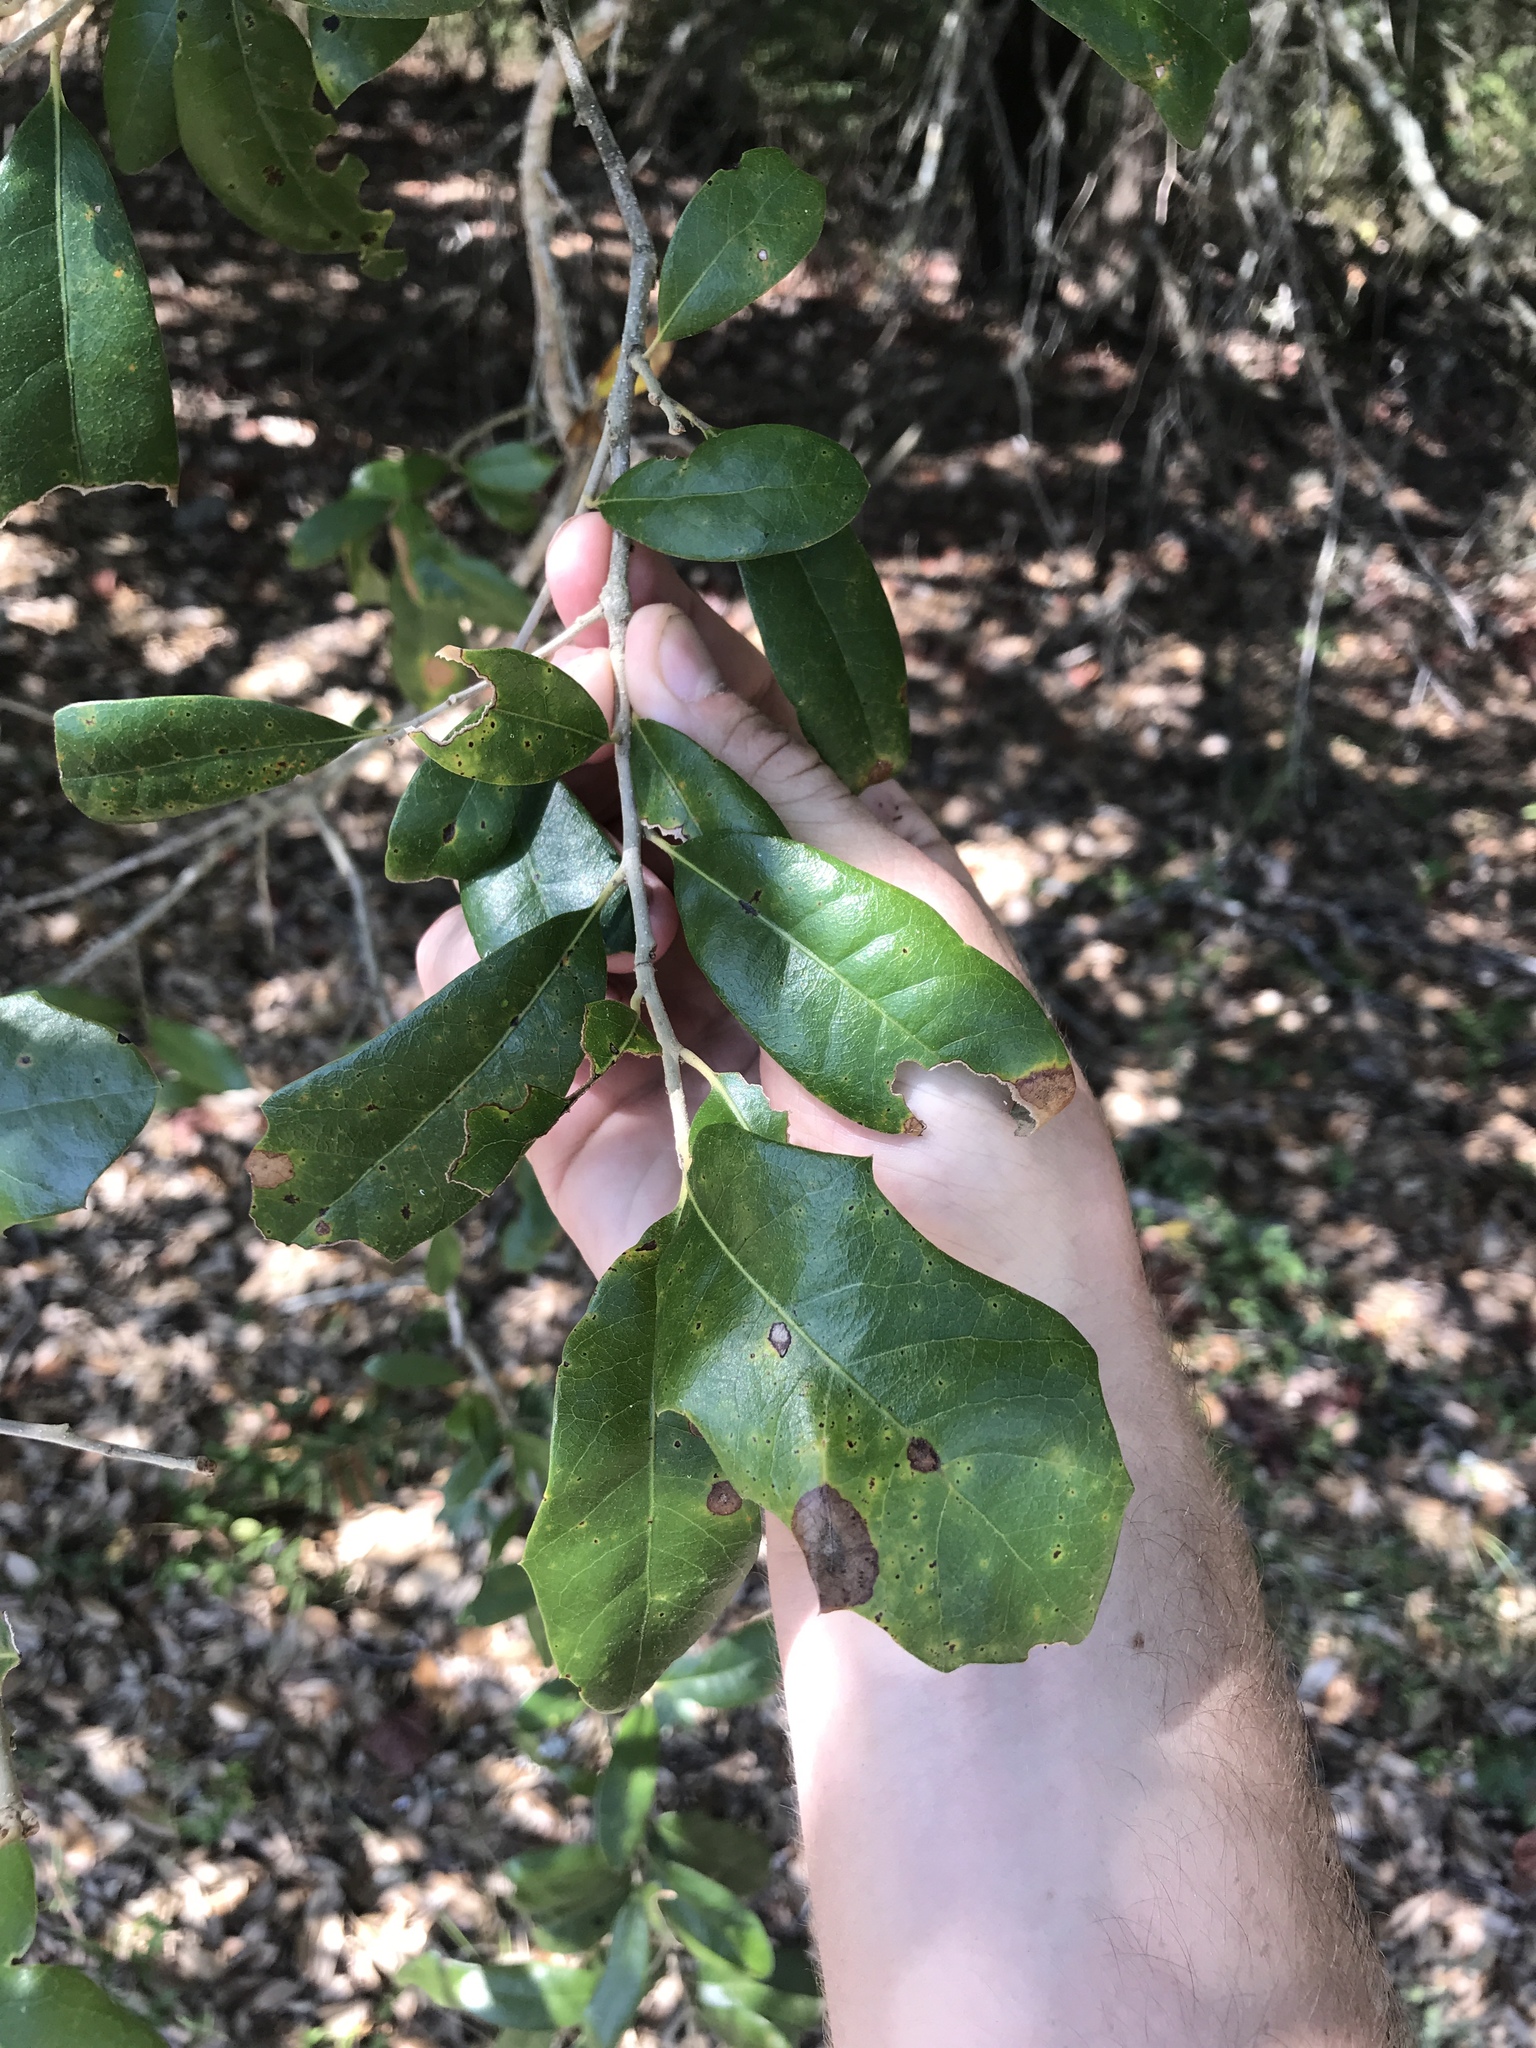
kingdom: Plantae
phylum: Tracheophyta
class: Magnoliopsida
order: Fagales
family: Fagaceae
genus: Quercus
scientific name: Quercus virginiana
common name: Southern live oak
